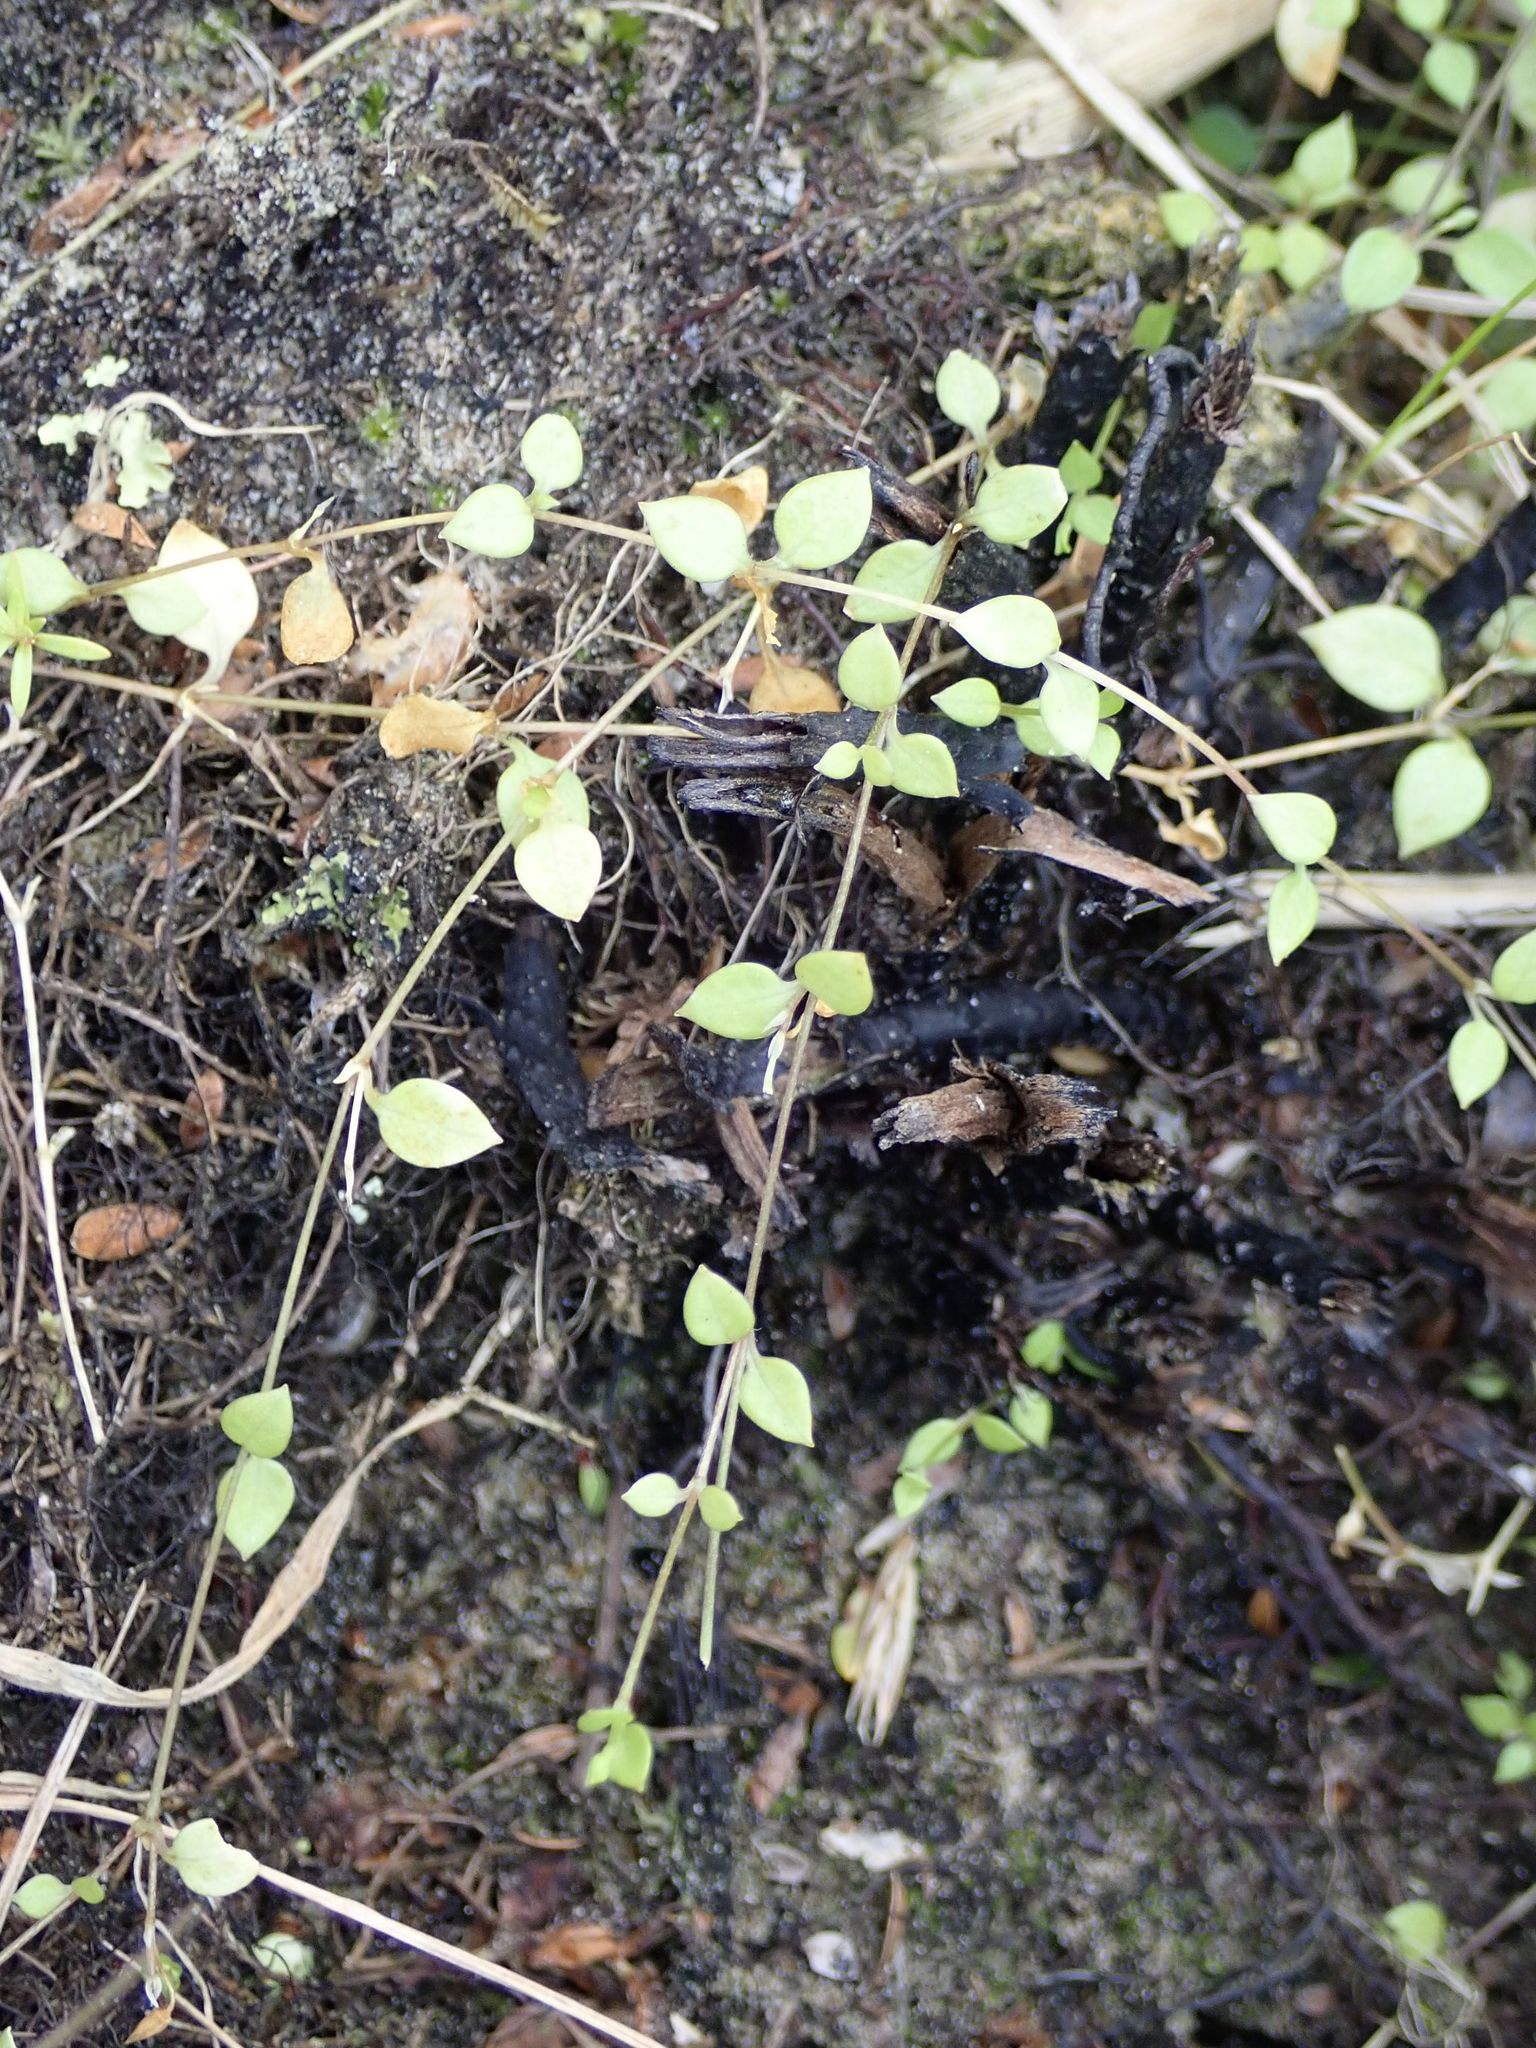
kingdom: Plantae
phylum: Tracheophyta
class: Magnoliopsida
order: Caryophyllales
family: Caryophyllaceae
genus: Stellaria
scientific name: Stellaria parviflora
